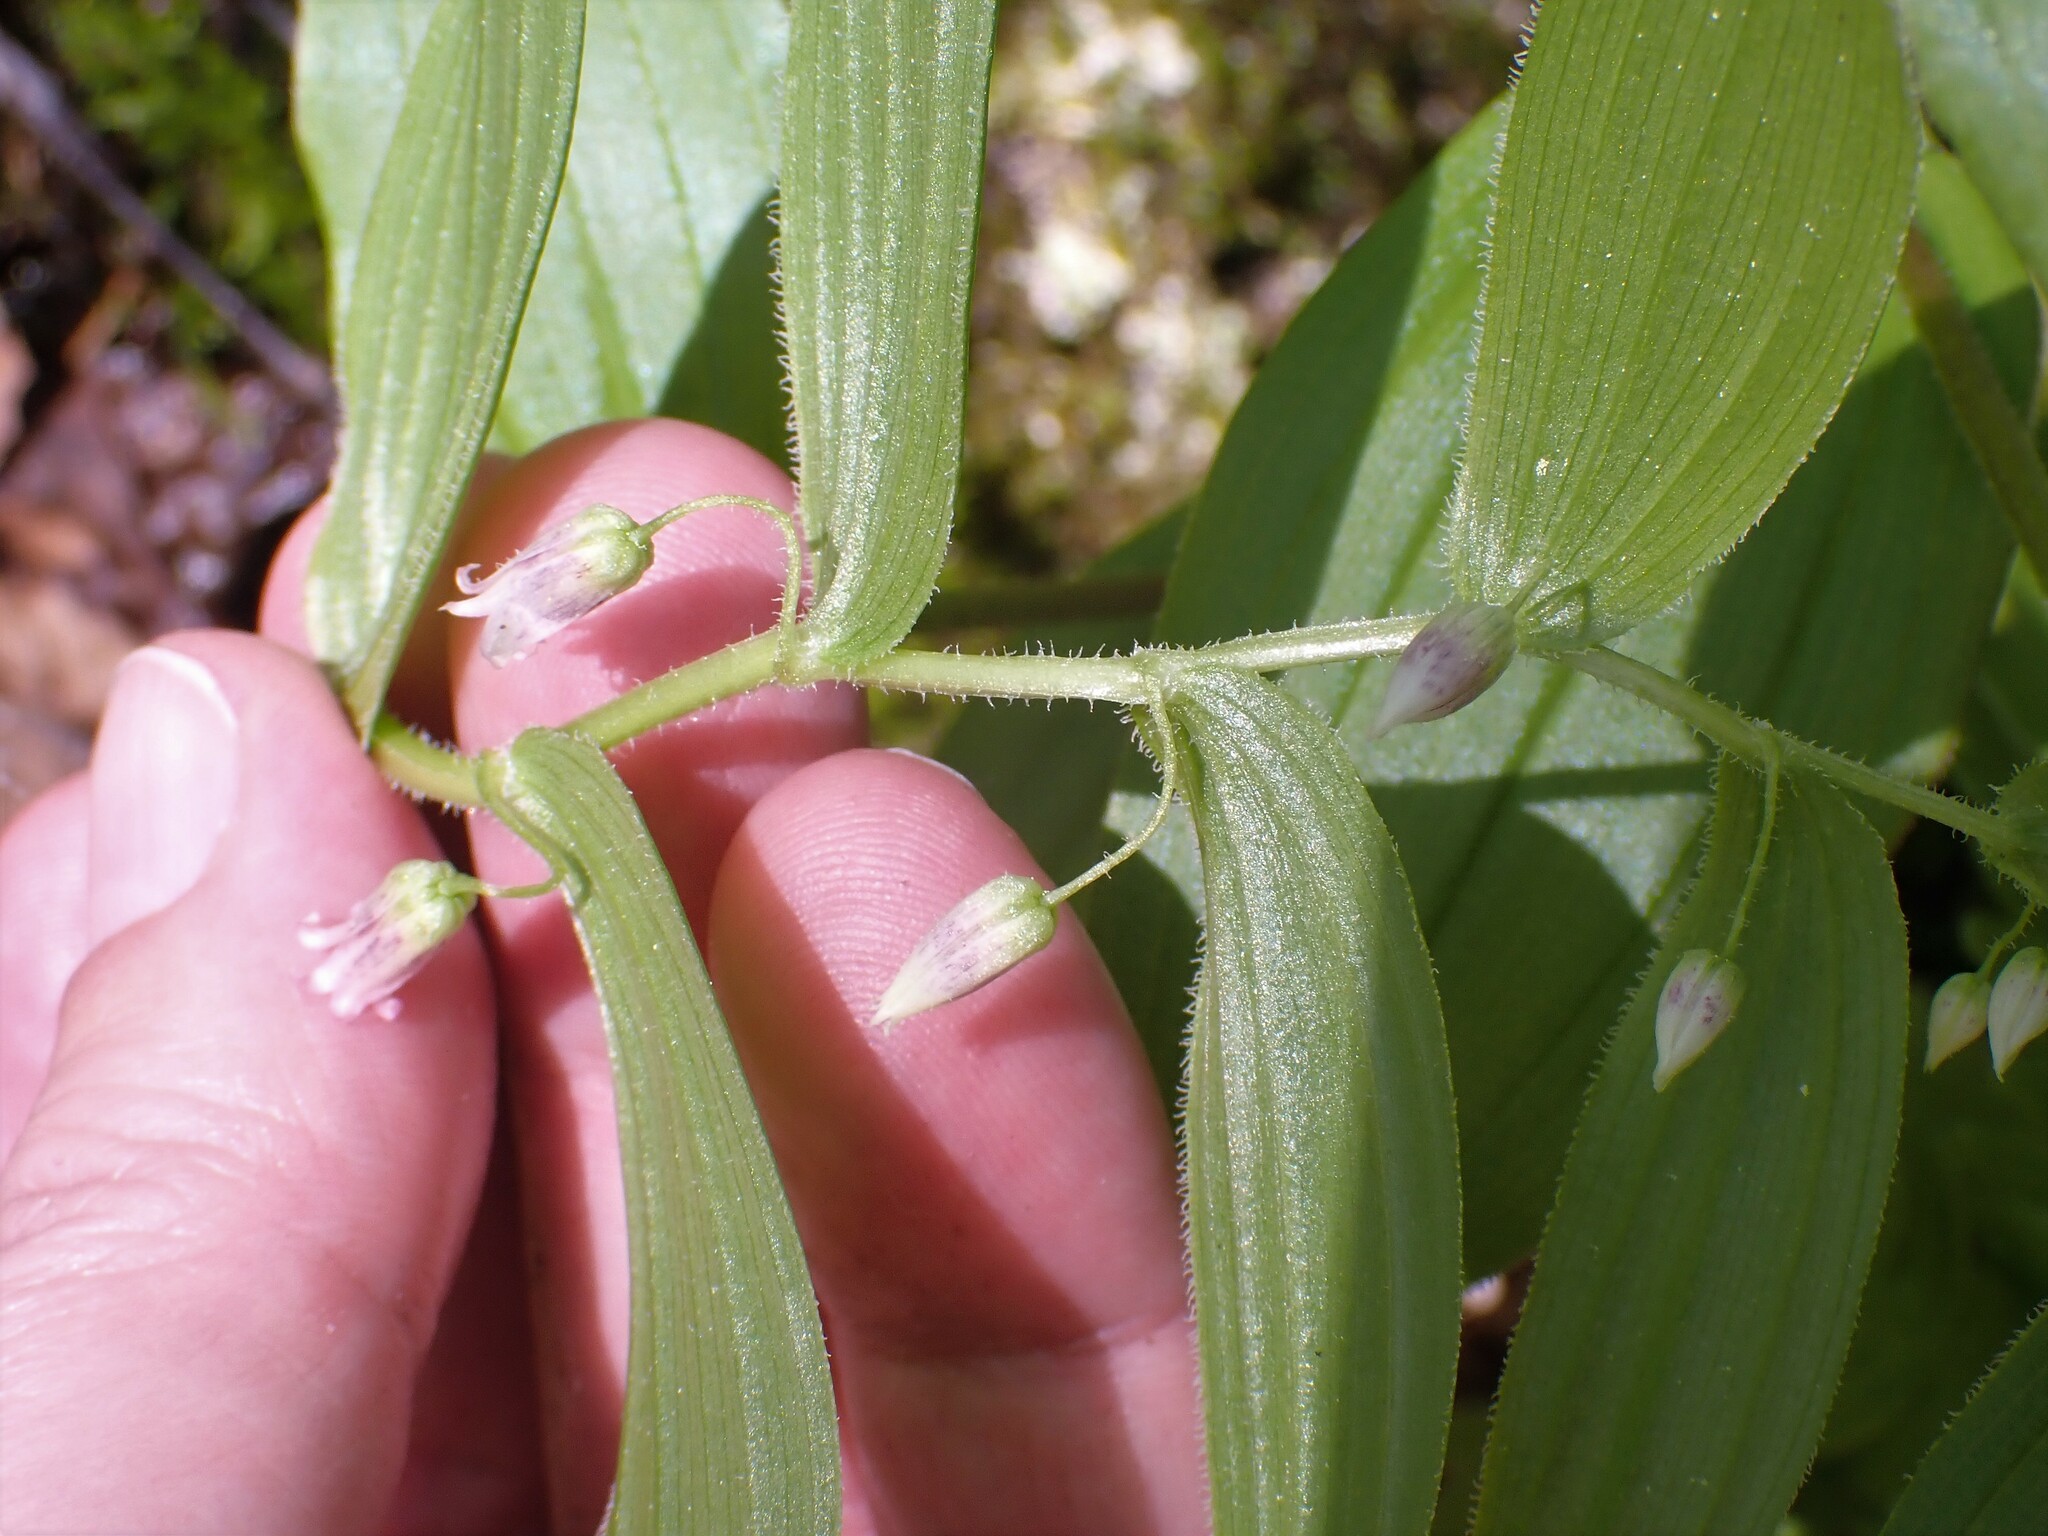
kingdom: Plantae
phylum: Tracheophyta
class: Liliopsida
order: Liliales
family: Liliaceae
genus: Streptopus
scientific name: Streptopus lanceolatus
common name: Rose mandarin
